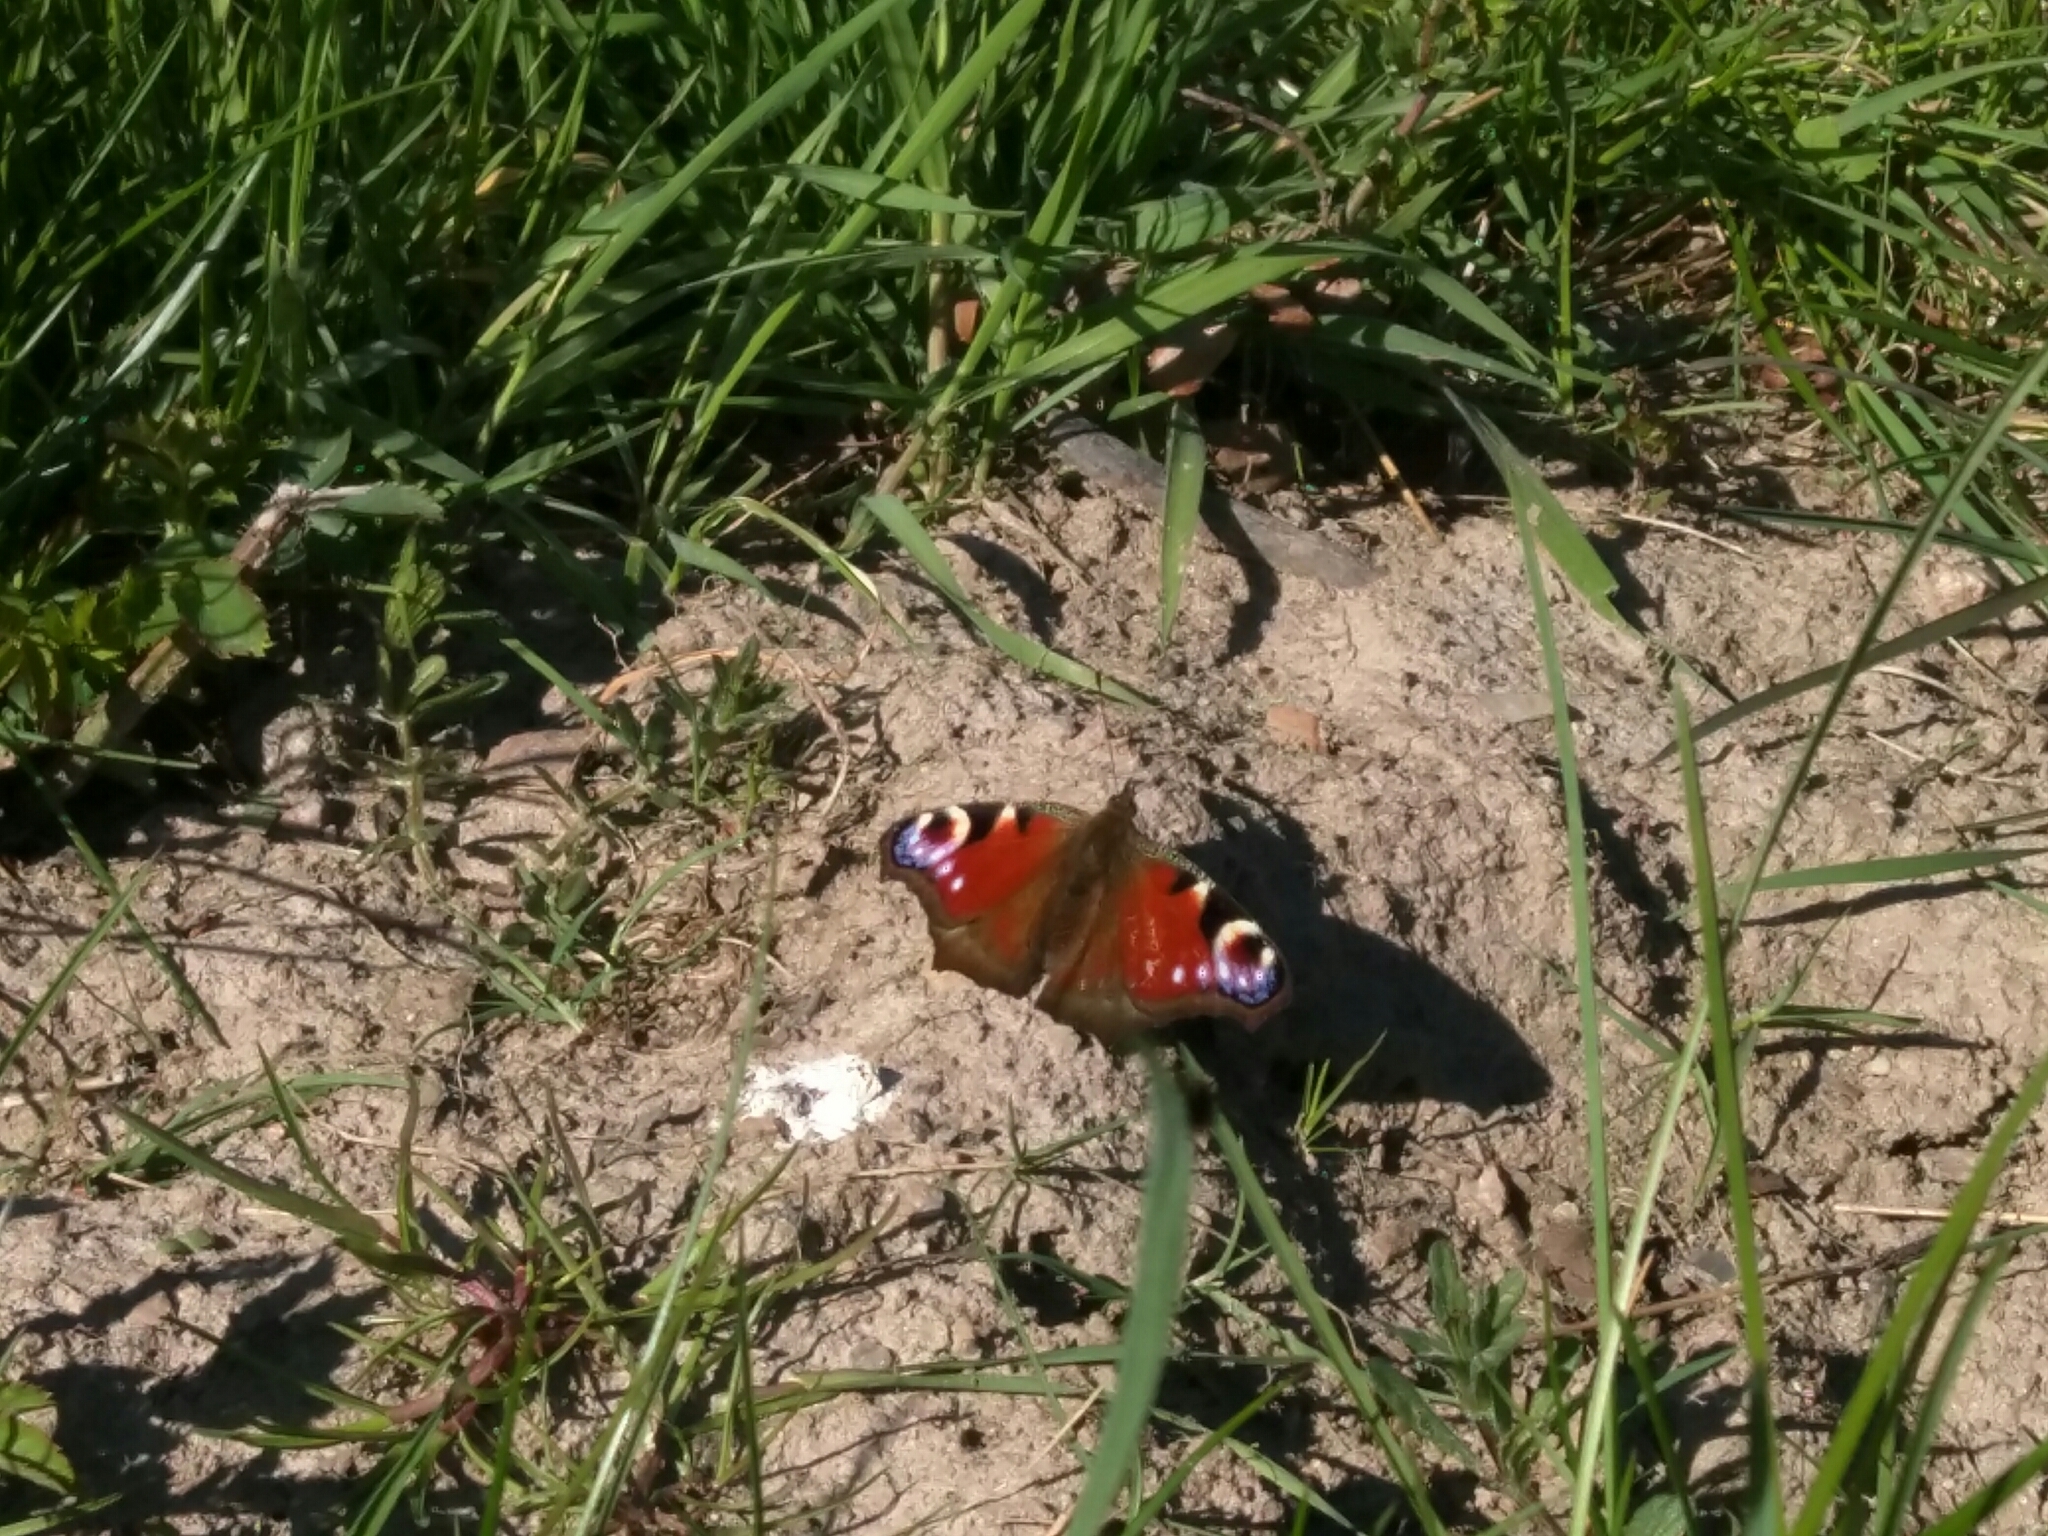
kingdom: Animalia
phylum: Arthropoda
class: Insecta
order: Lepidoptera
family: Nymphalidae
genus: Aglais
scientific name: Aglais io
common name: Peacock
